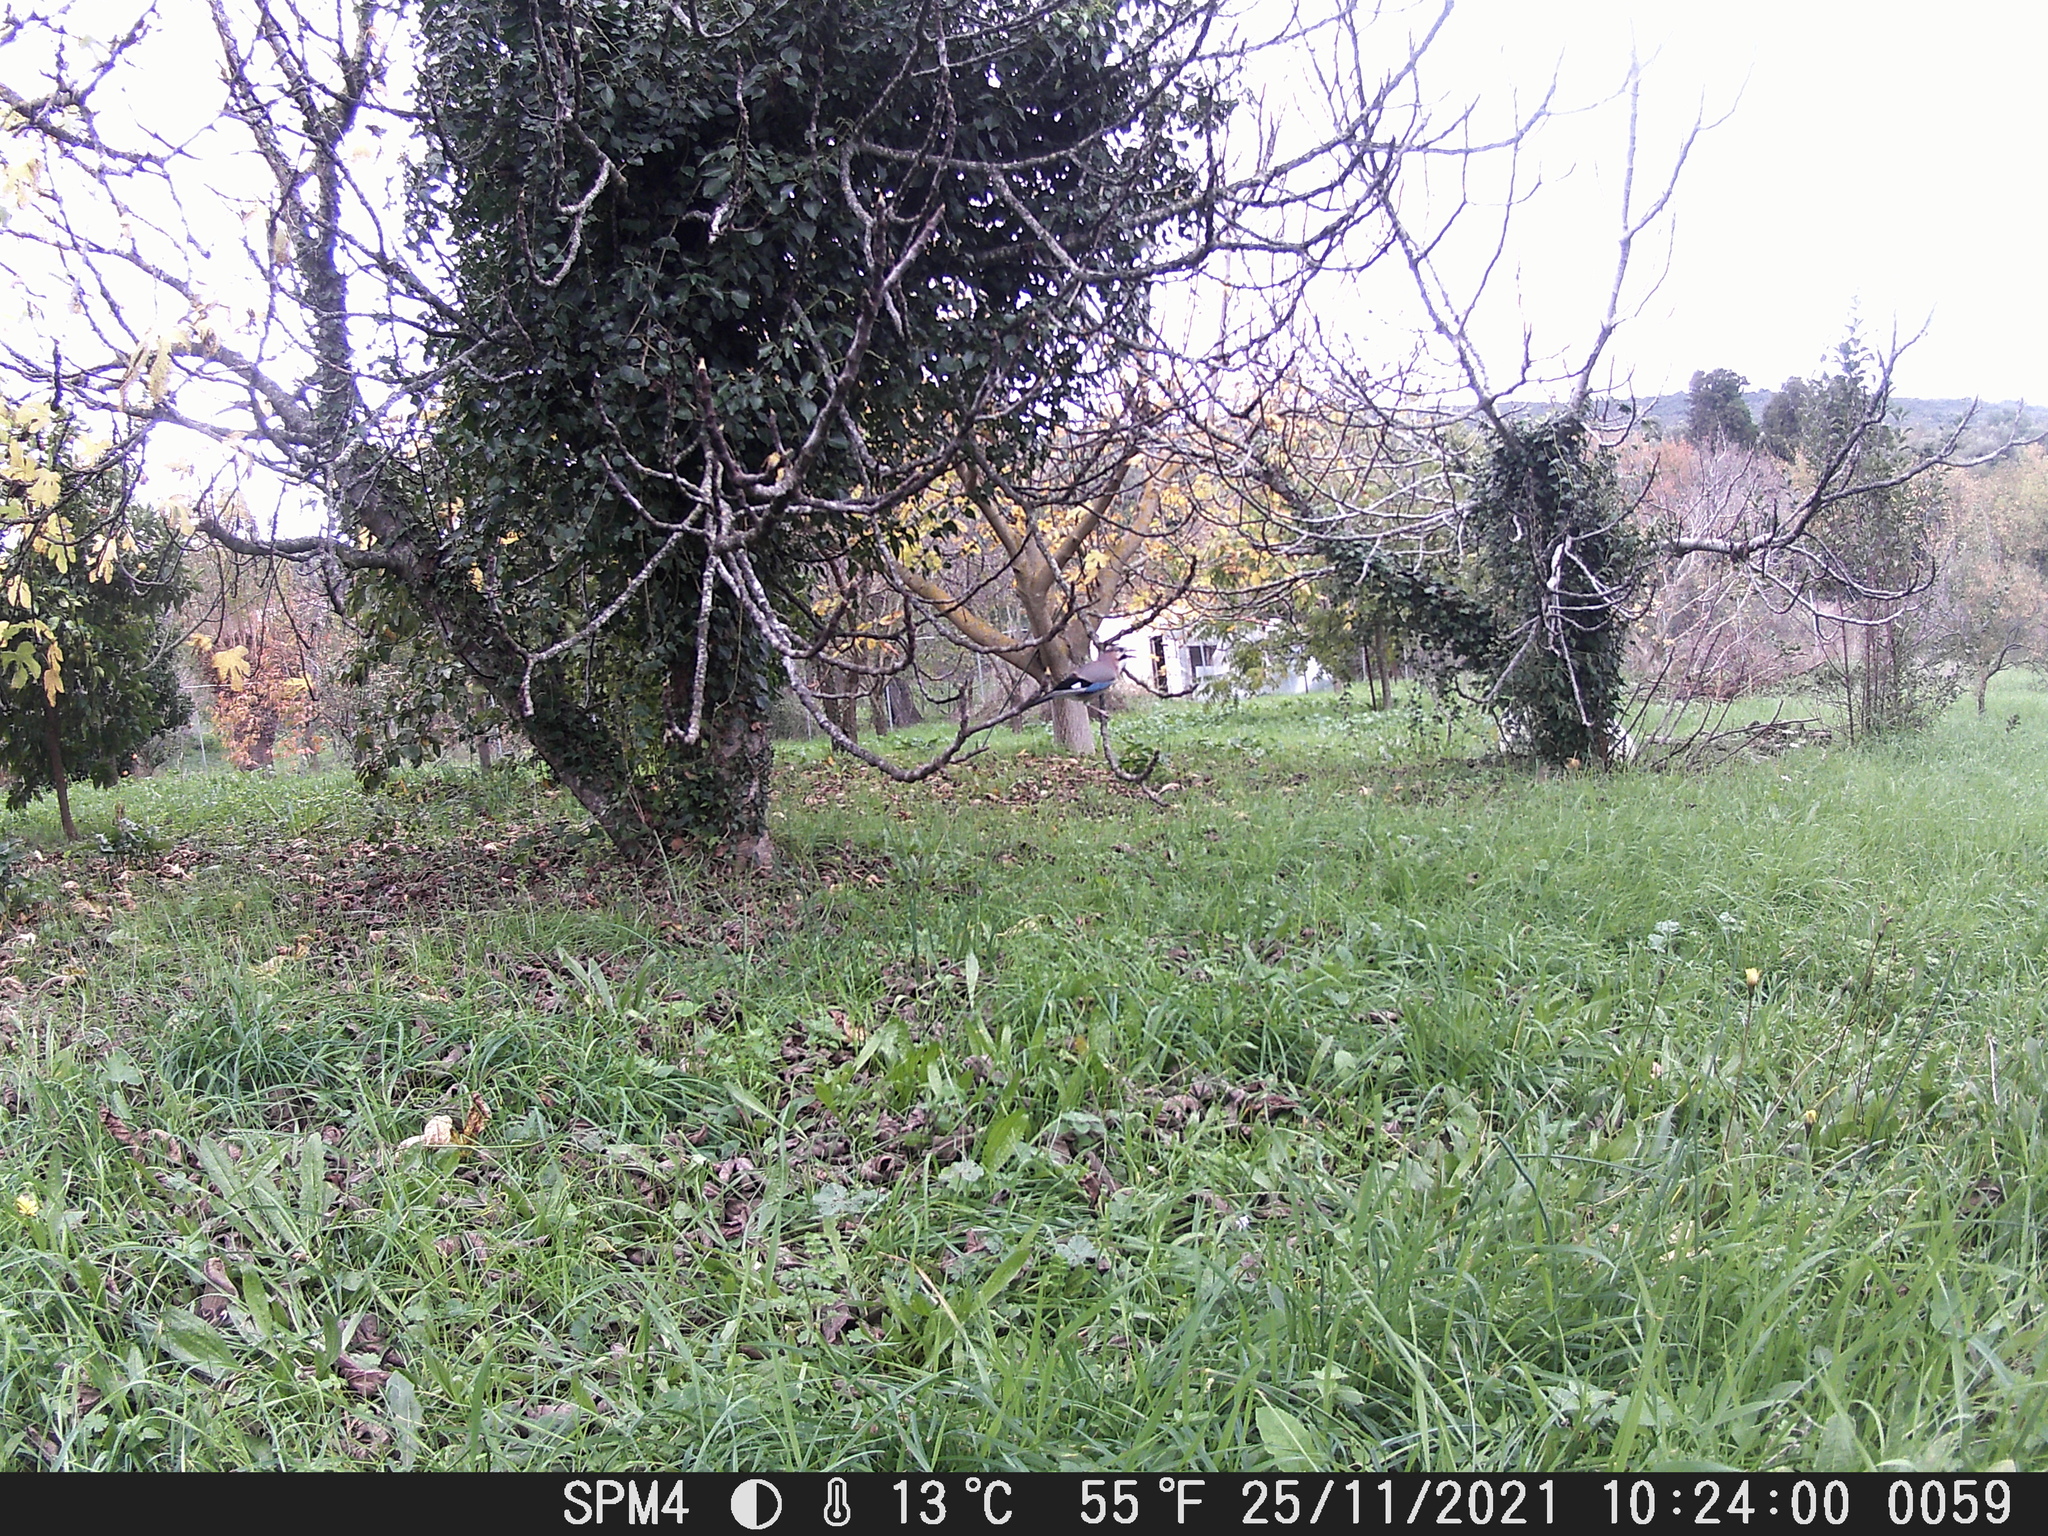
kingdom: Animalia
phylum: Chordata
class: Aves
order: Passeriformes
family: Corvidae
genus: Garrulus
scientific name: Garrulus glandarius
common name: Eurasian jay
